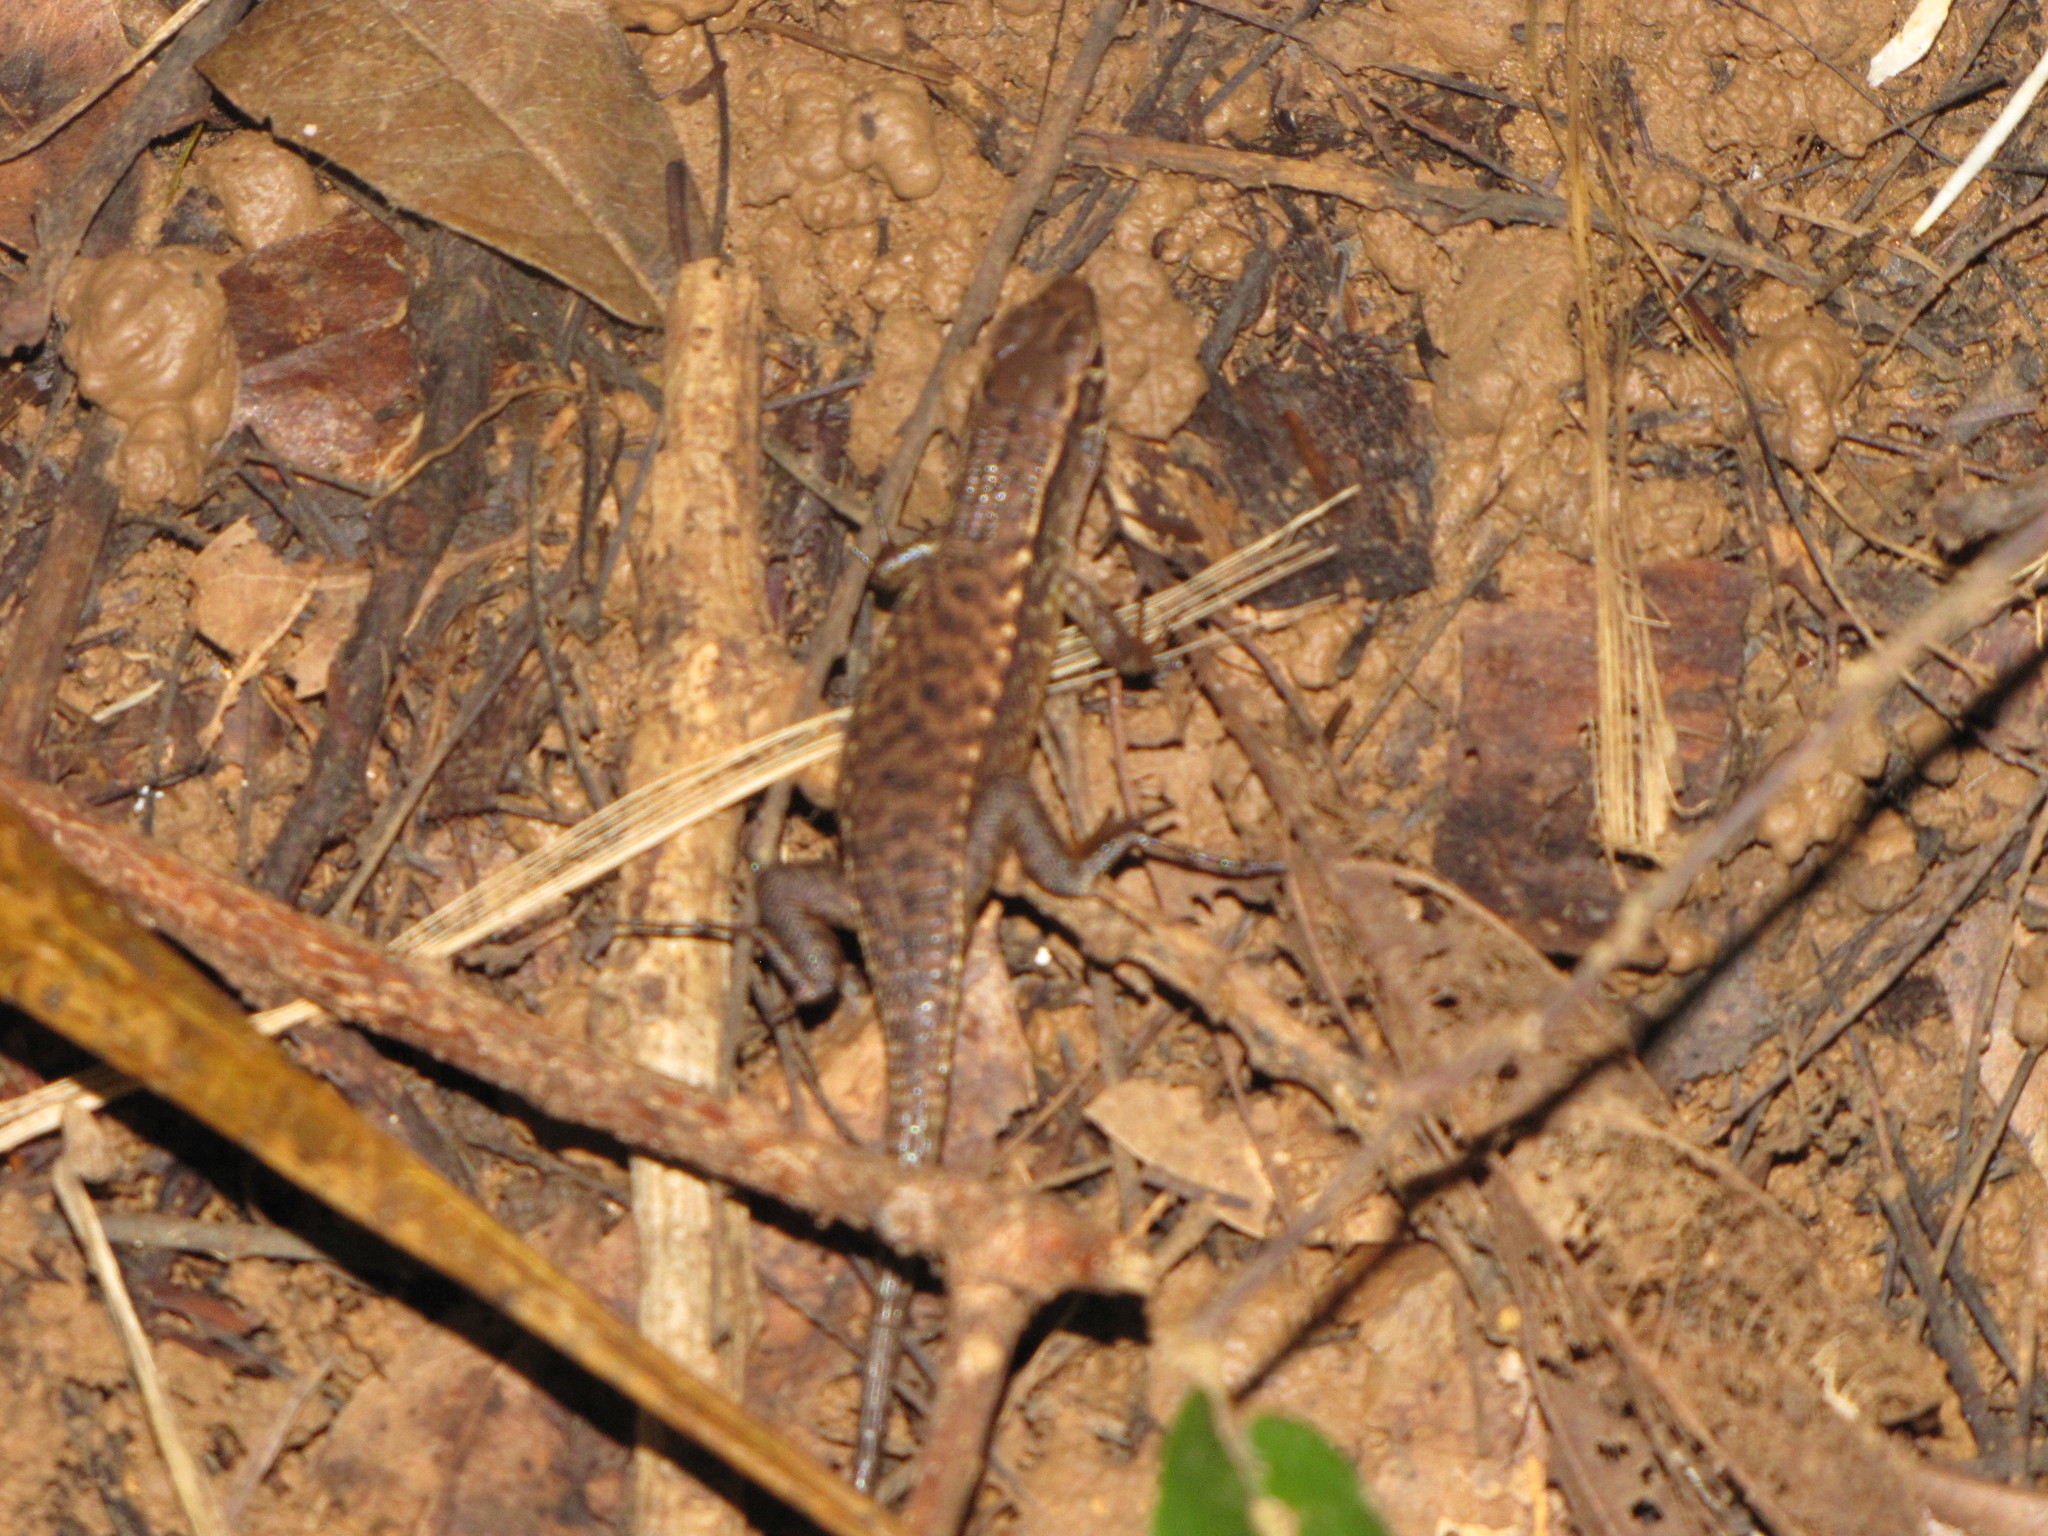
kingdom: Animalia
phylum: Chordata
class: Squamata
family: Gerrhosauridae
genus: Zonosaurus
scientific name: Zonosaurus rufipes
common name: Red-legged girdled lizard
